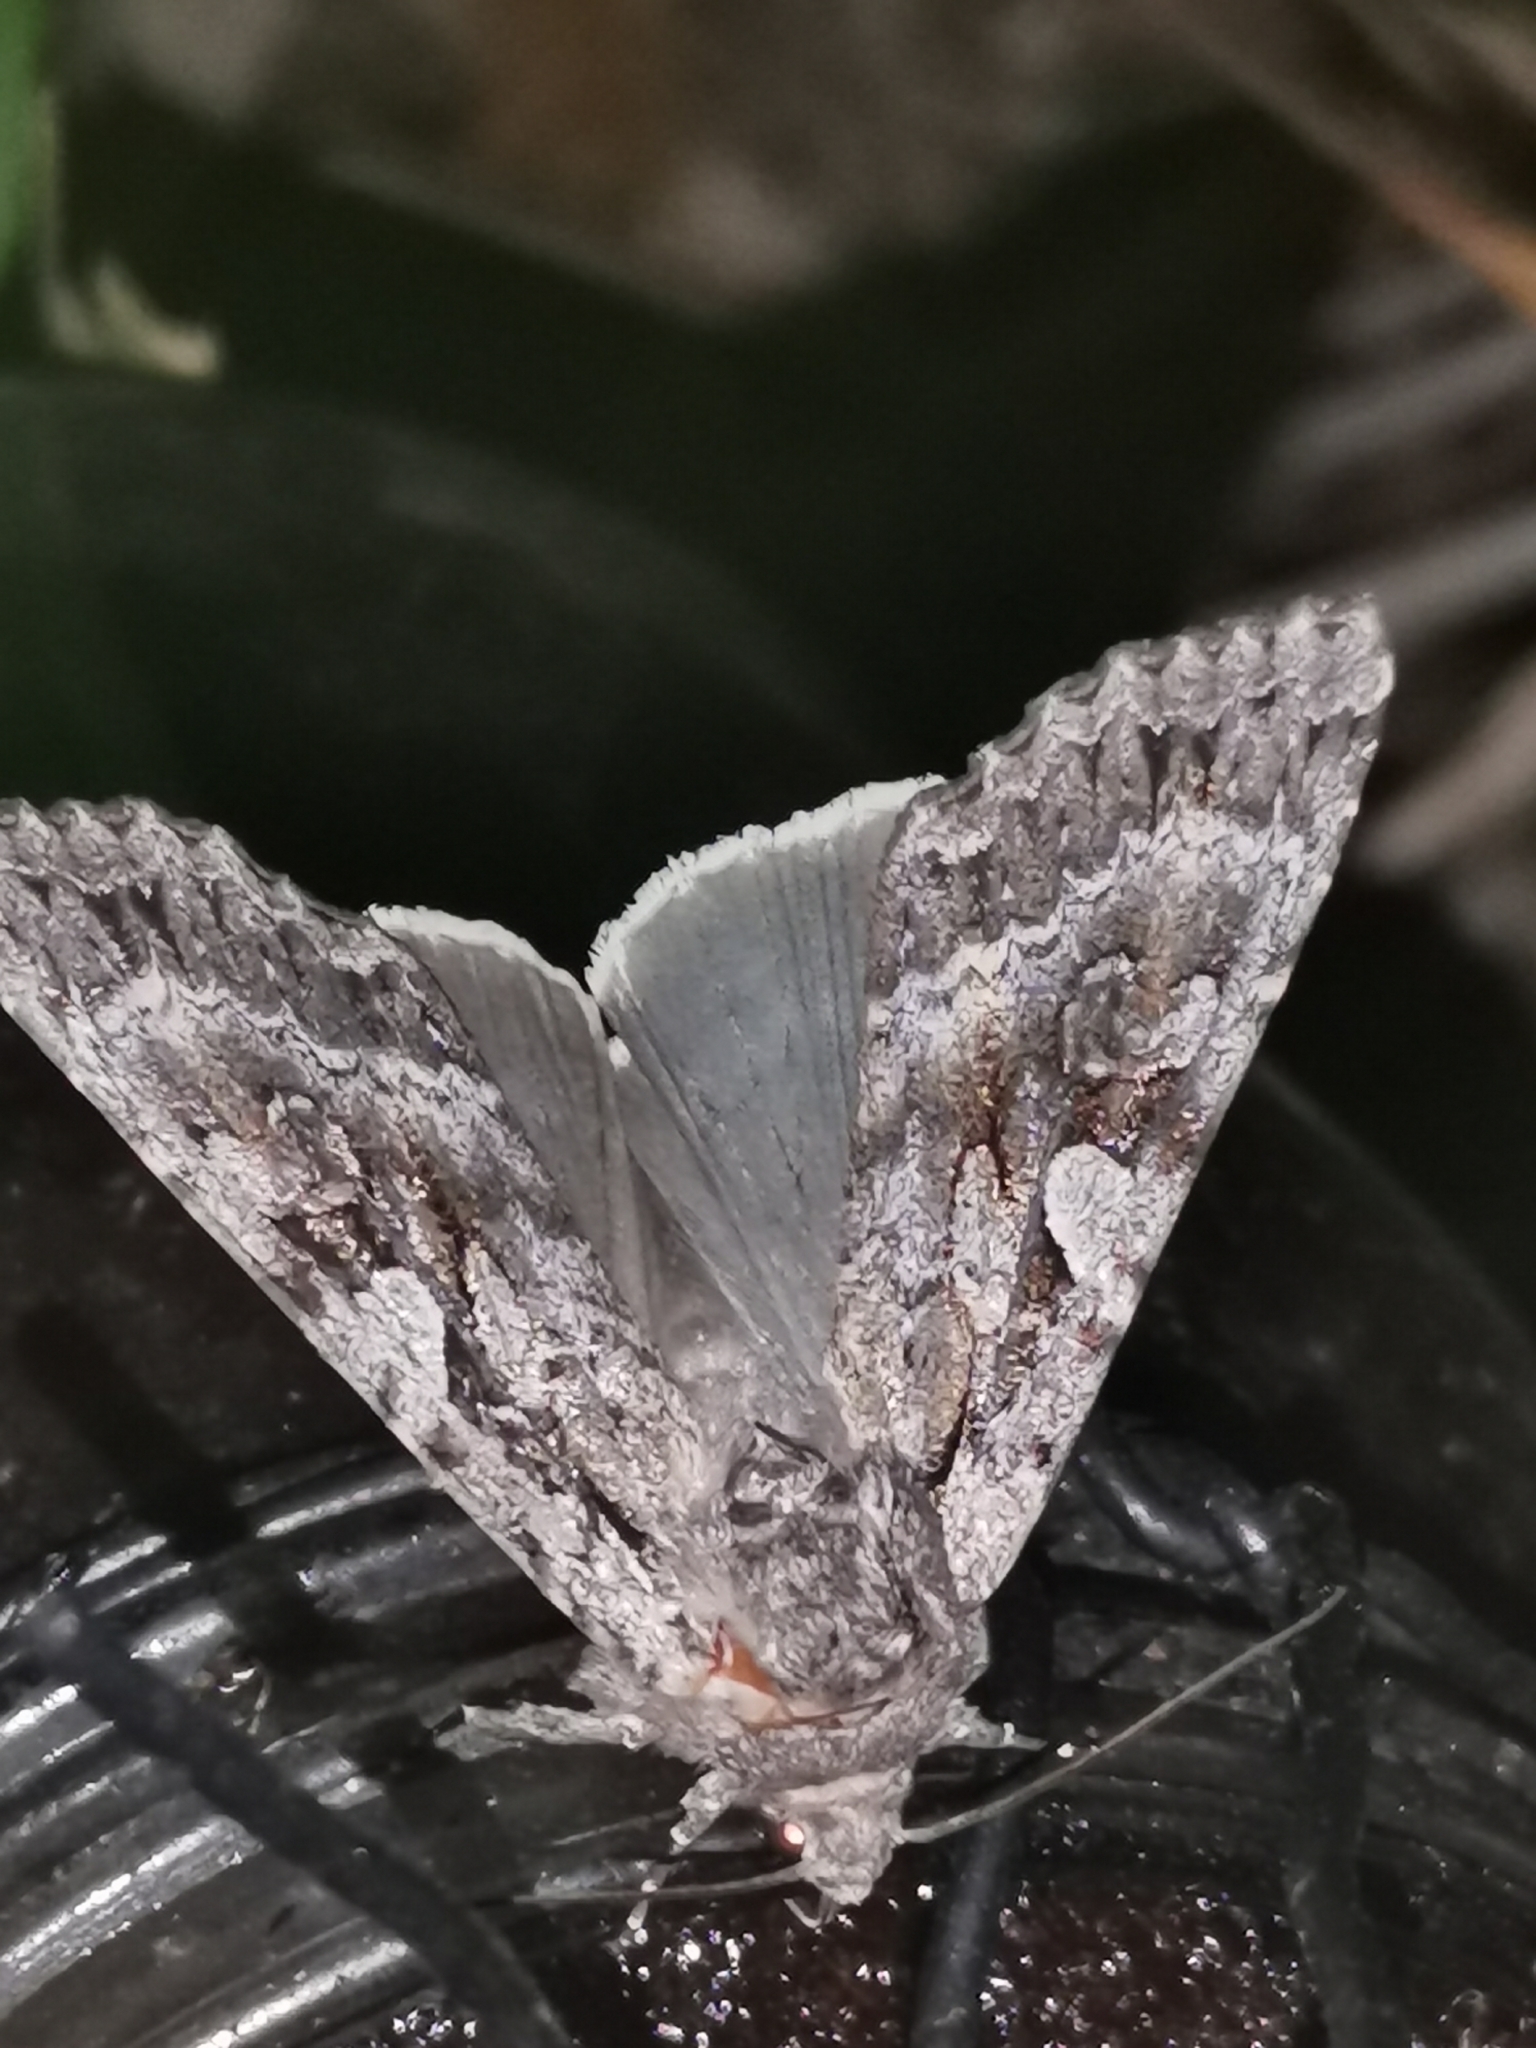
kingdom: Animalia
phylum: Arthropoda
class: Insecta
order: Lepidoptera
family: Noctuidae
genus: Eurois
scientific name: Eurois occulta
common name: Great brocade
